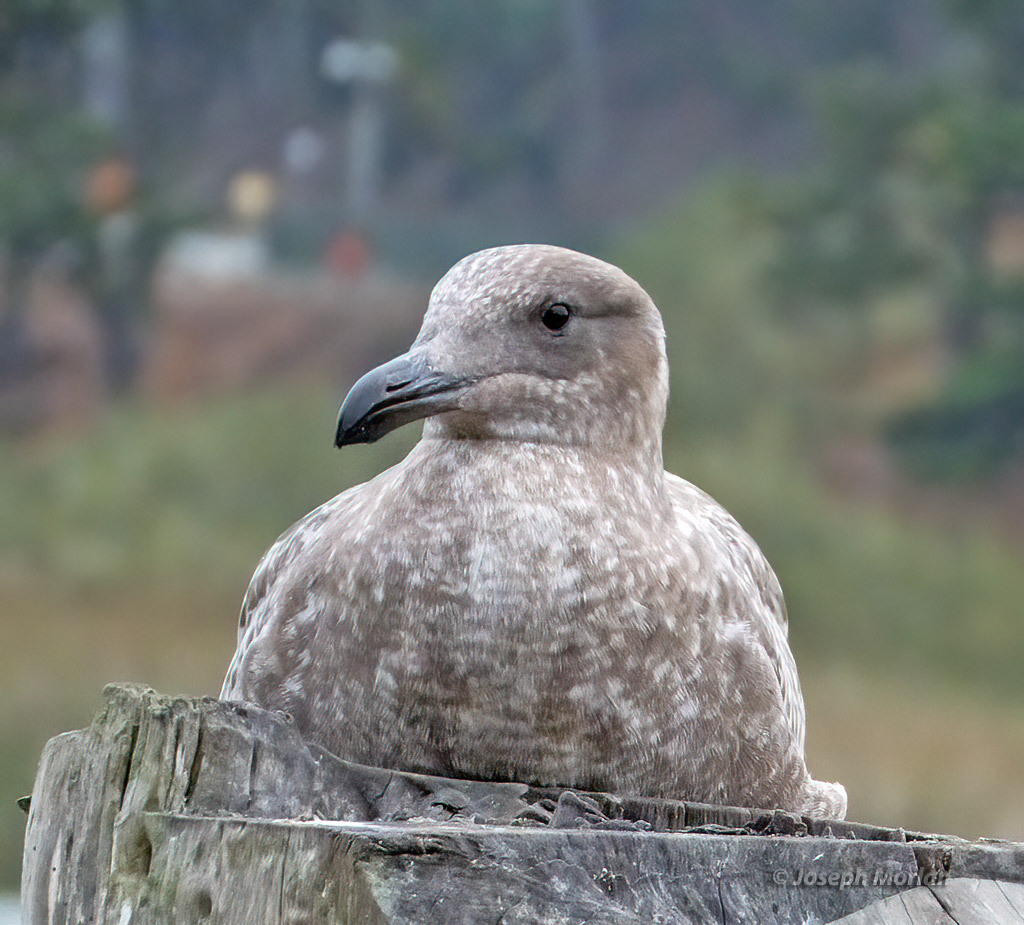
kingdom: Animalia
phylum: Chordata
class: Aves
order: Charadriiformes
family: Laridae
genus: Larus
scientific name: Larus occidentalis
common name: Western gull
